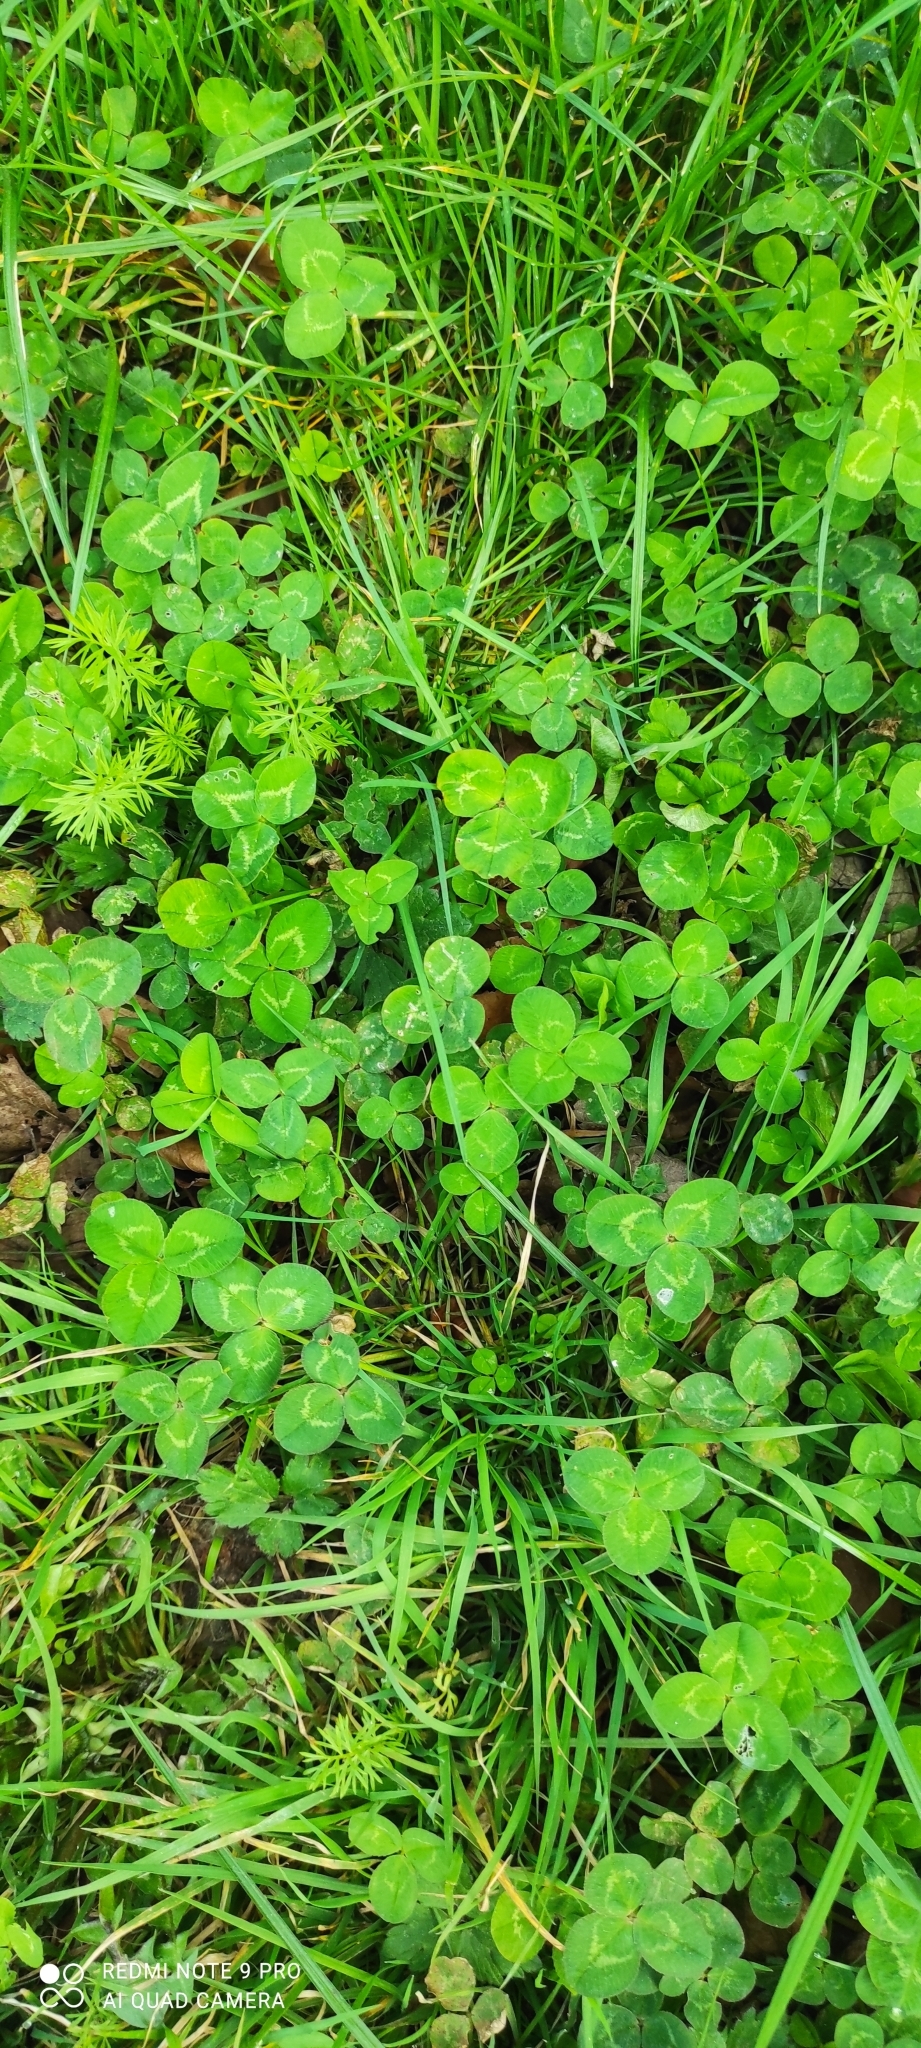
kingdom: Plantae
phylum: Tracheophyta
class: Magnoliopsida
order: Fabales
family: Fabaceae
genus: Trifolium
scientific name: Trifolium repens
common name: White clover
